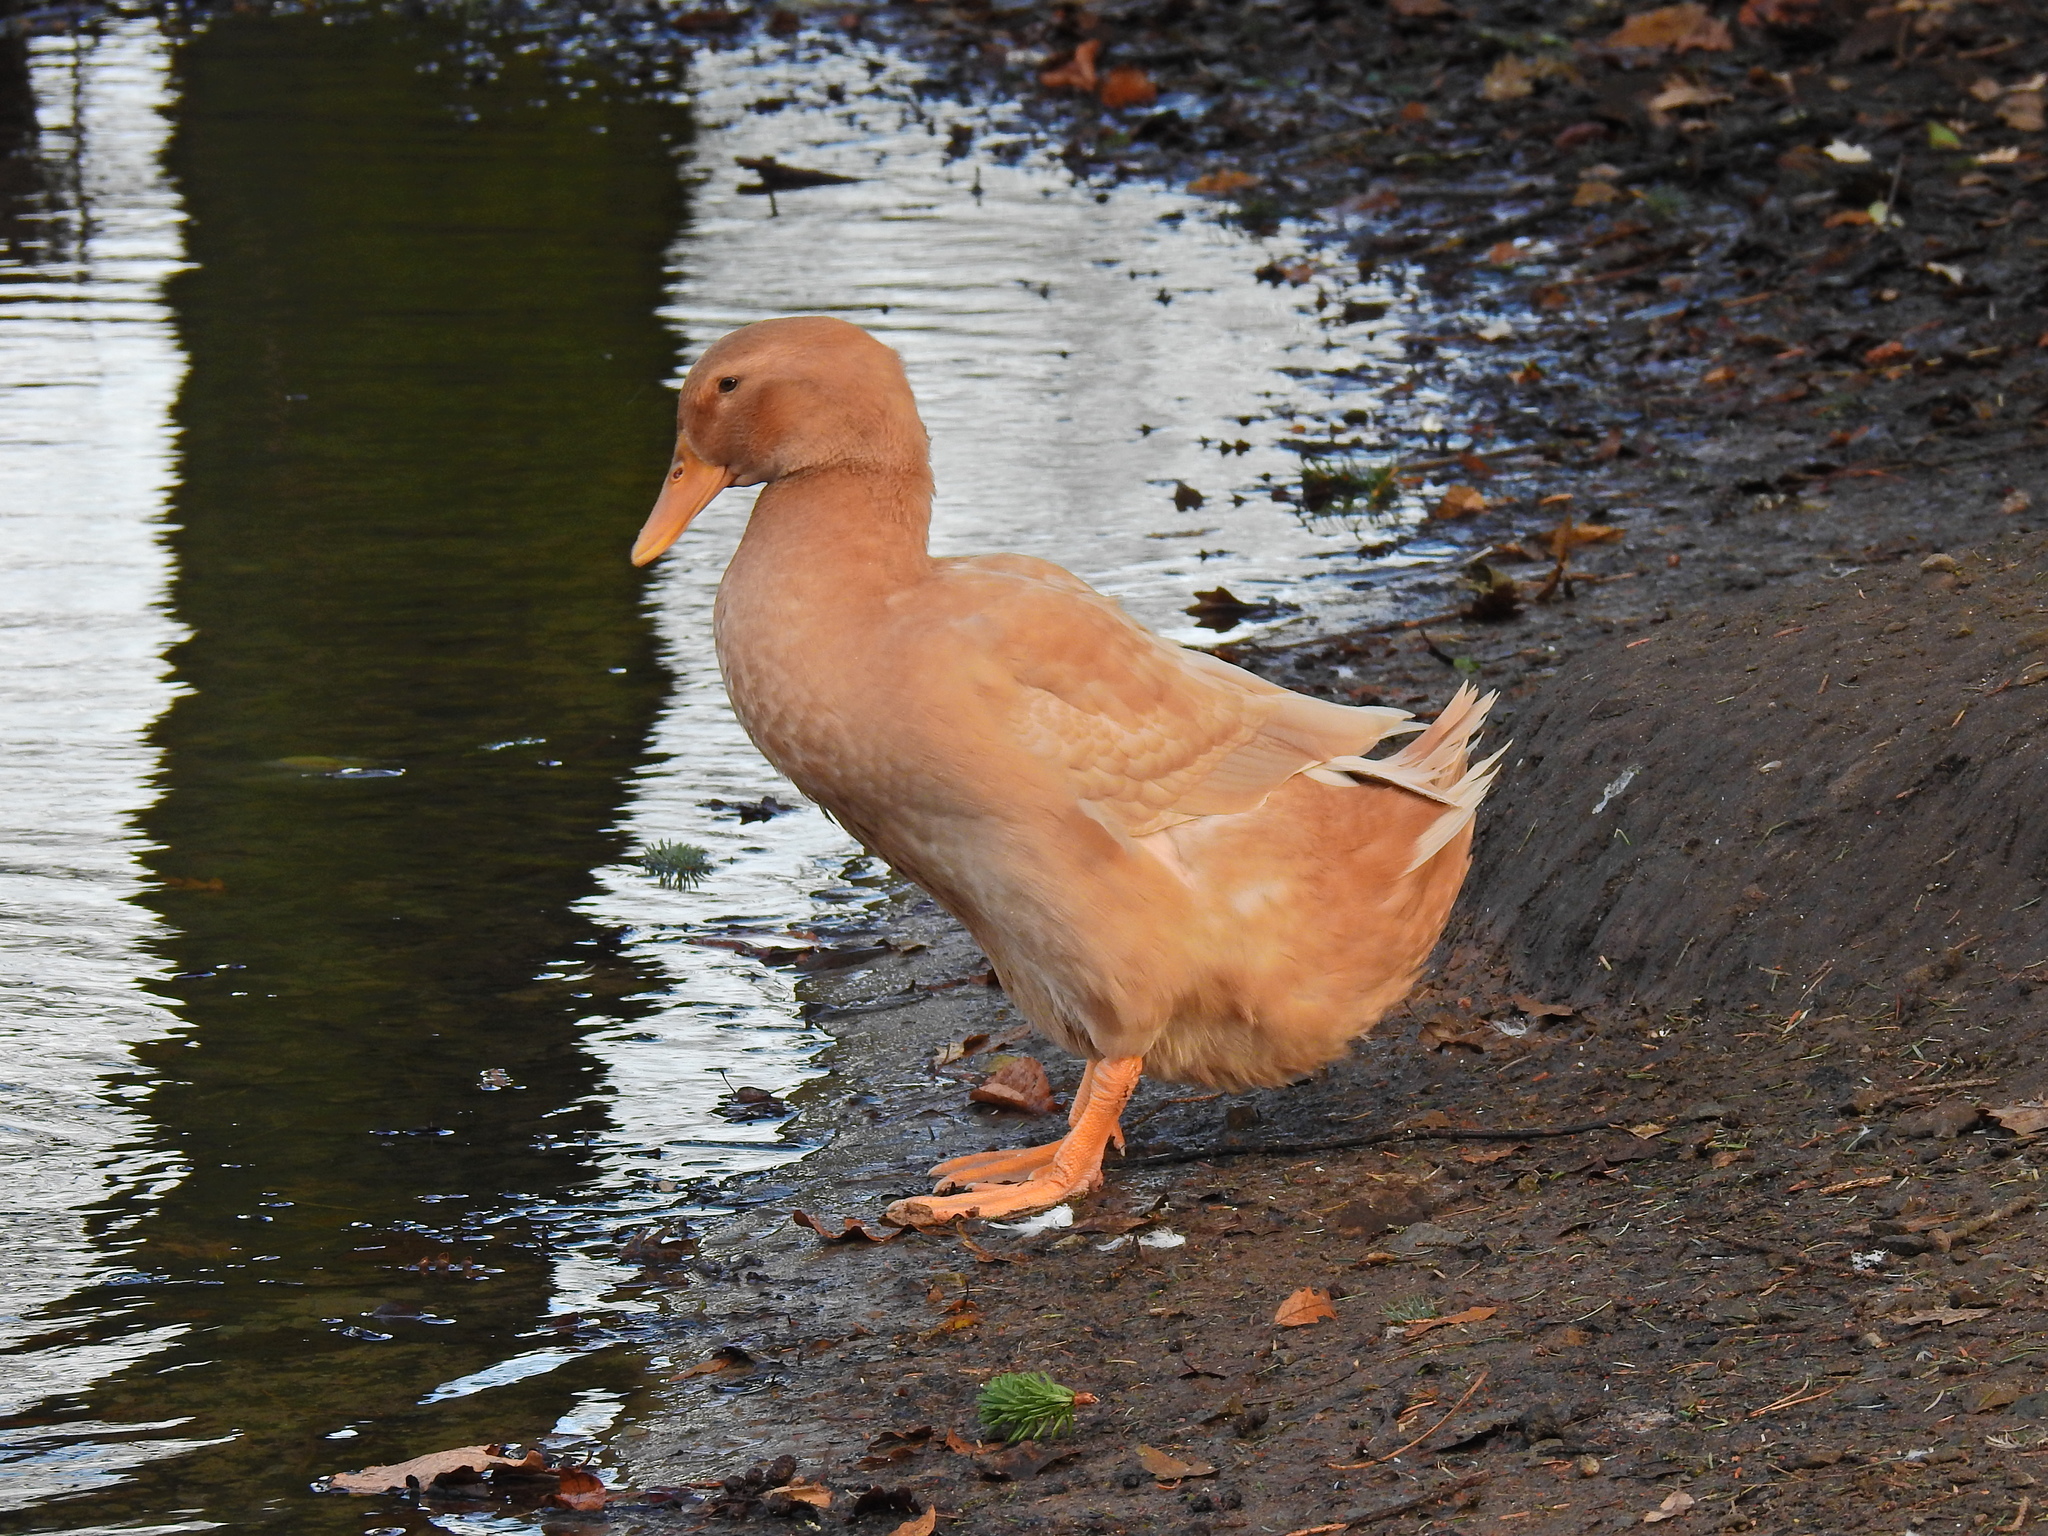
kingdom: Animalia
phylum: Chordata
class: Aves
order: Anseriformes
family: Anatidae
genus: Anas
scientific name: Anas platyrhynchos
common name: Mallard
